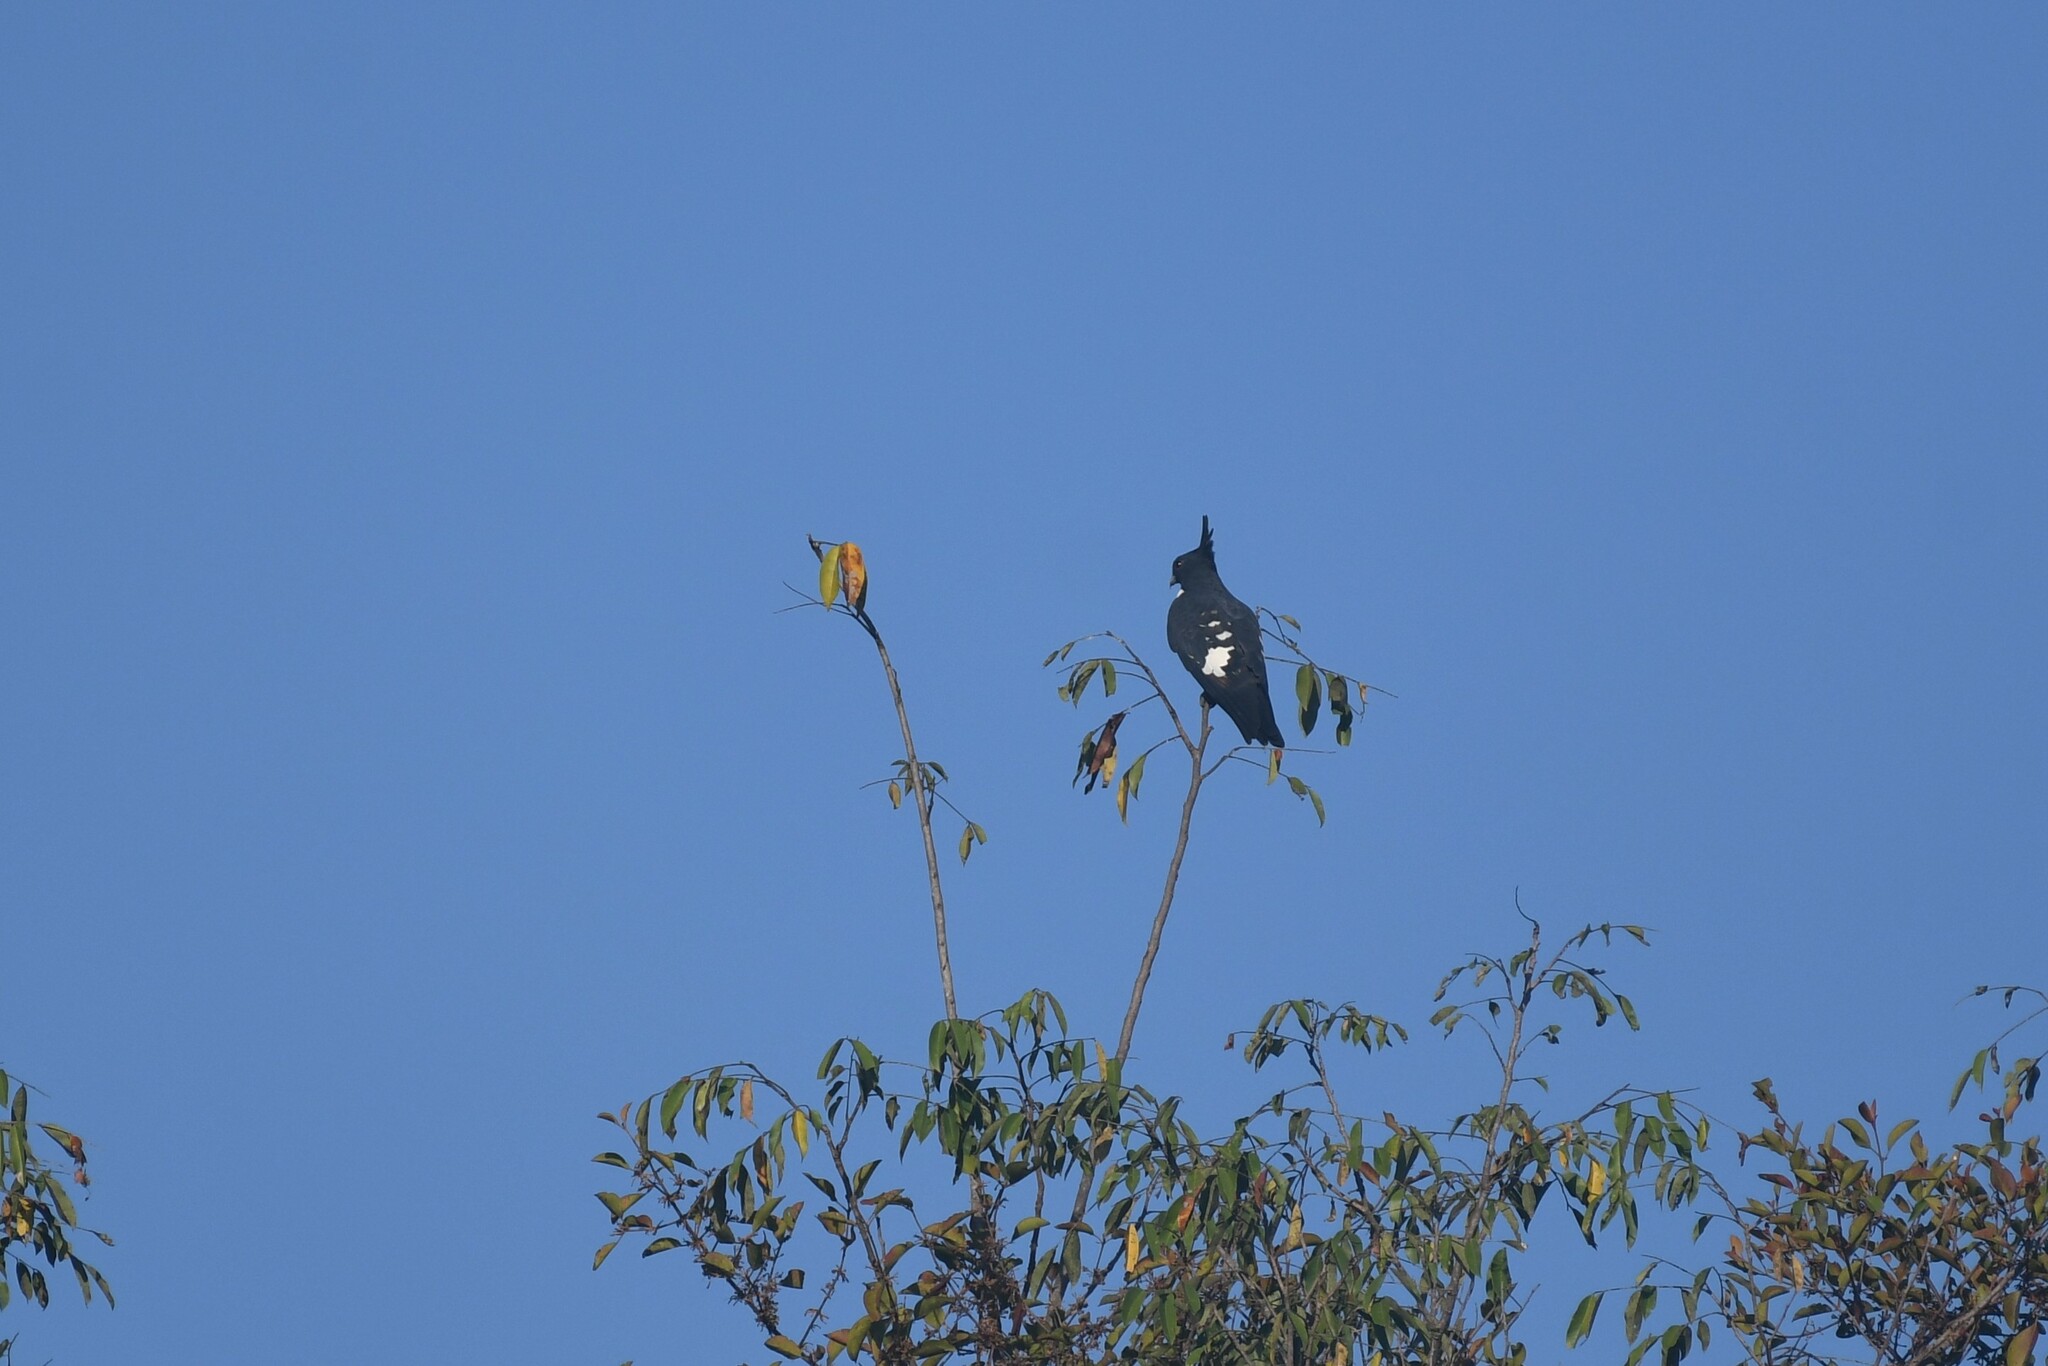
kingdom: Animalia
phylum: Chordata
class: Aves
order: Accipitriformes
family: Accipitridae
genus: Aviceda
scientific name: Aviceda leuphotes
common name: Black baza
